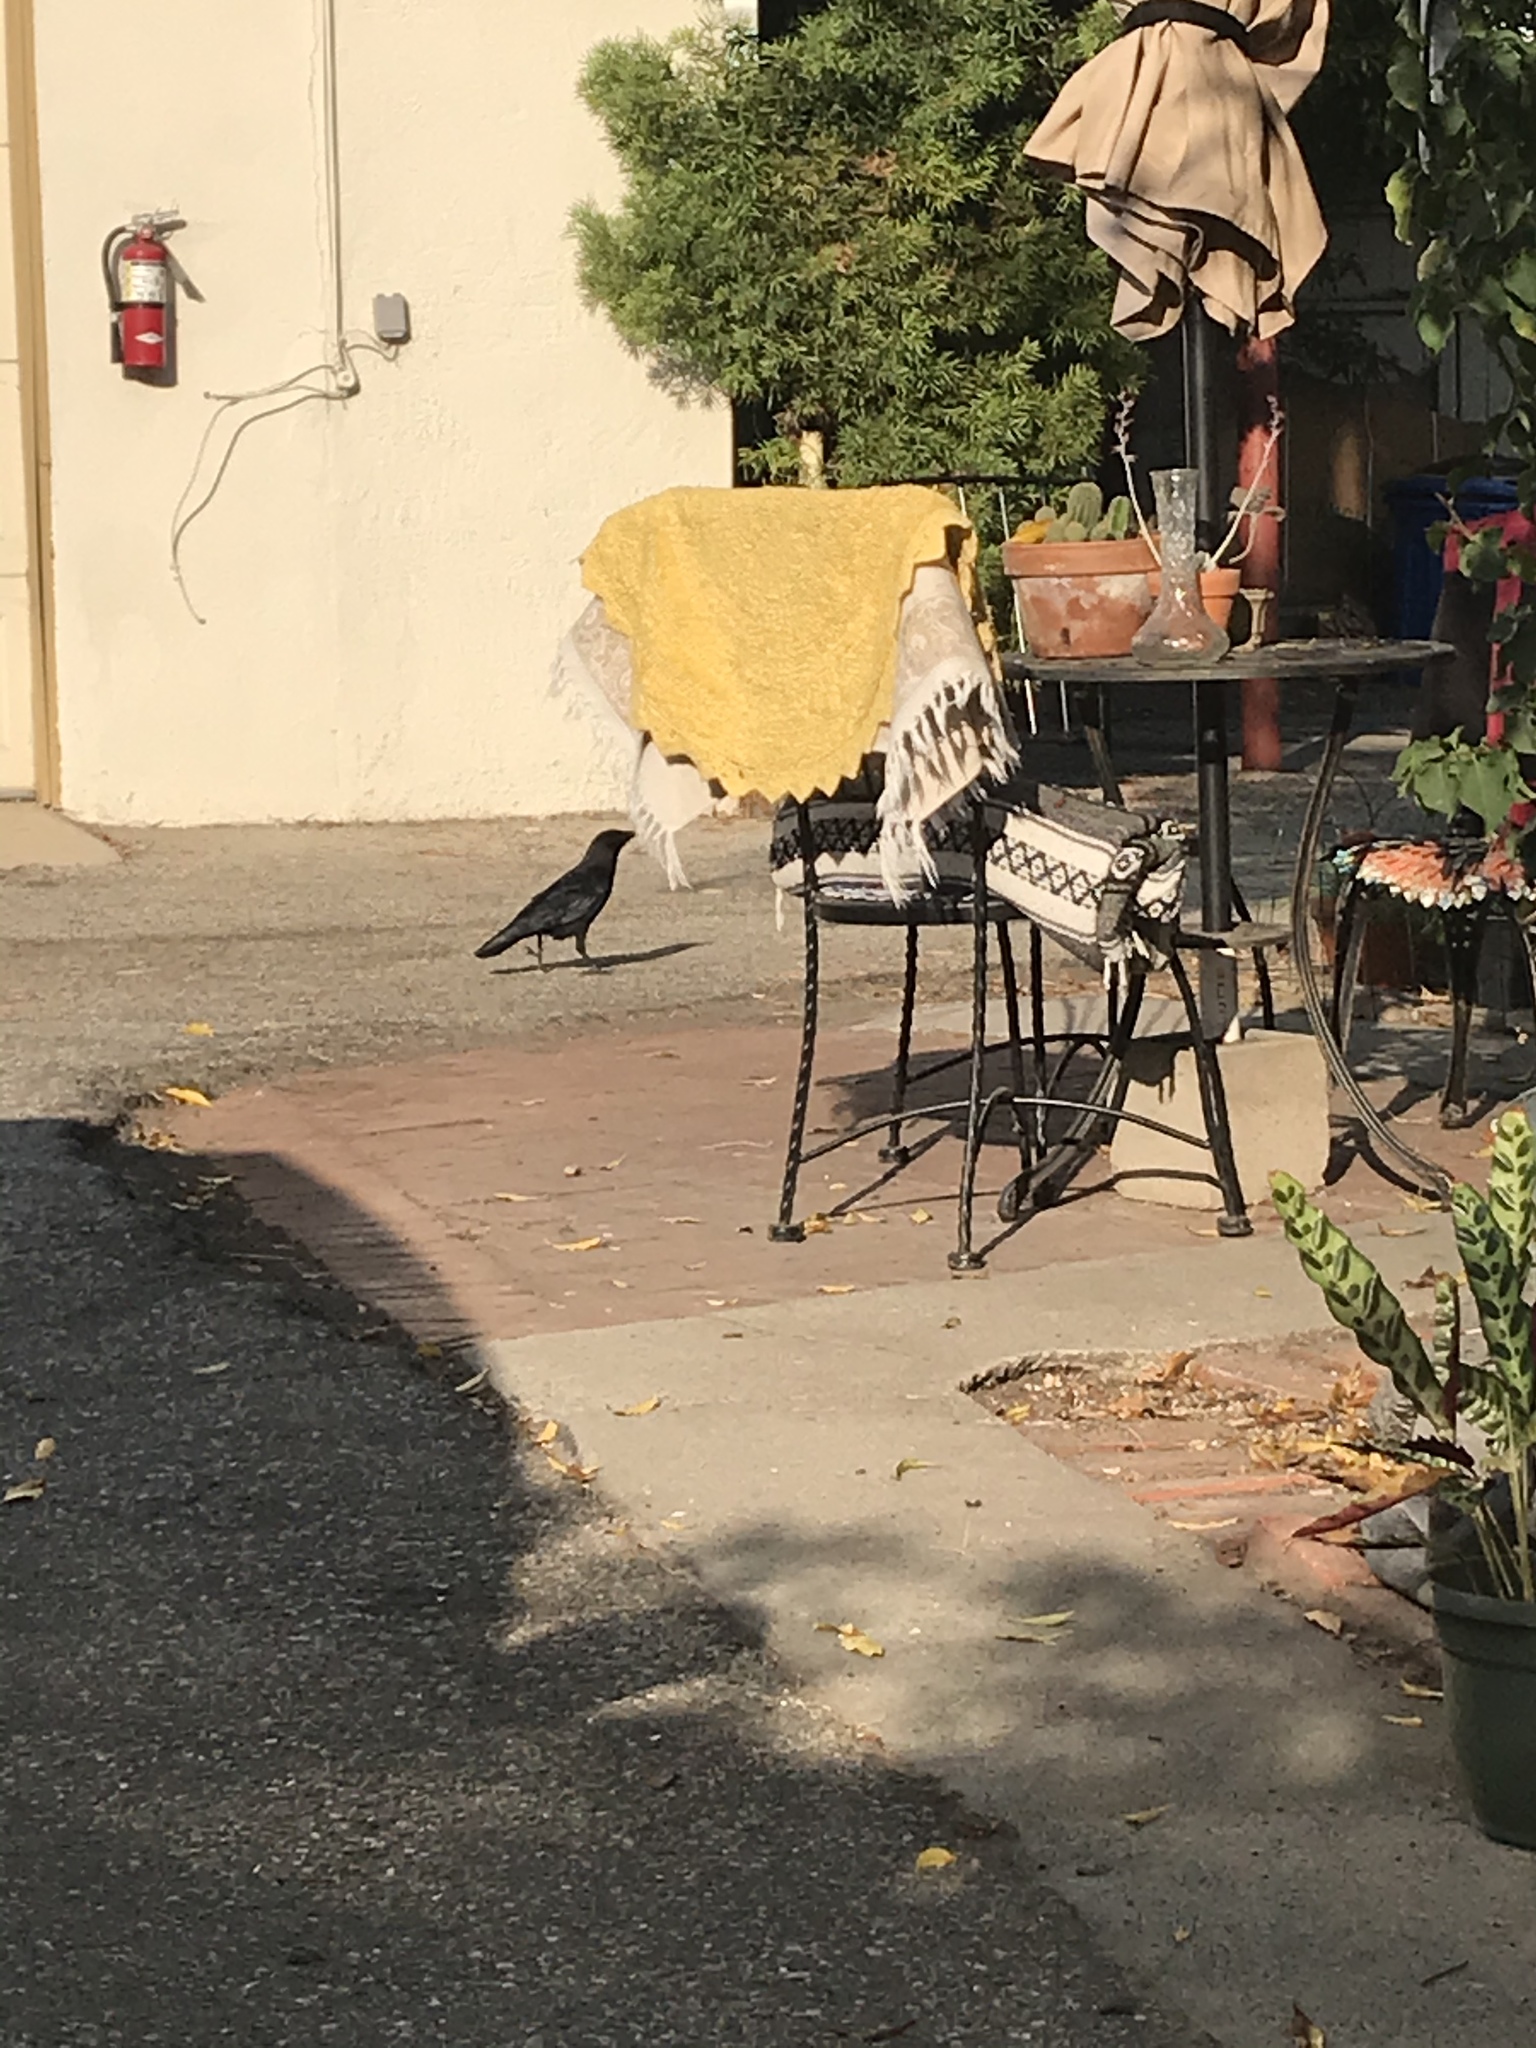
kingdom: Animalia
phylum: Chordata
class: Aves
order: Passeriformes
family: Corvidae
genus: Corvus
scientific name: Corvus brachyrhynchos
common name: American crow
